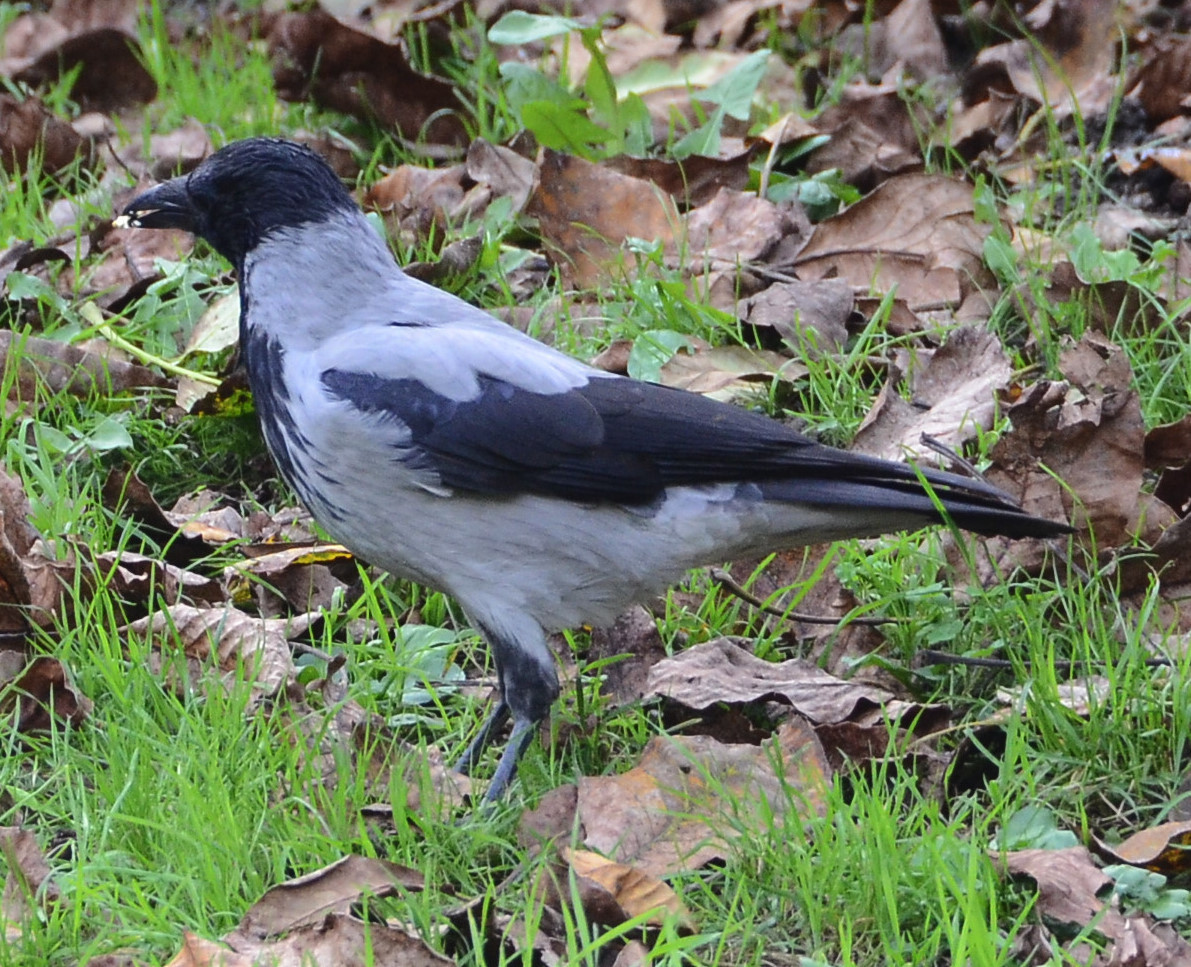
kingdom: Animalia
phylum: Chordata
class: Aves
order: Passeriformes
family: Corvidae
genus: Corvus
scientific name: Corvus cornix
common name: Hooded crow
